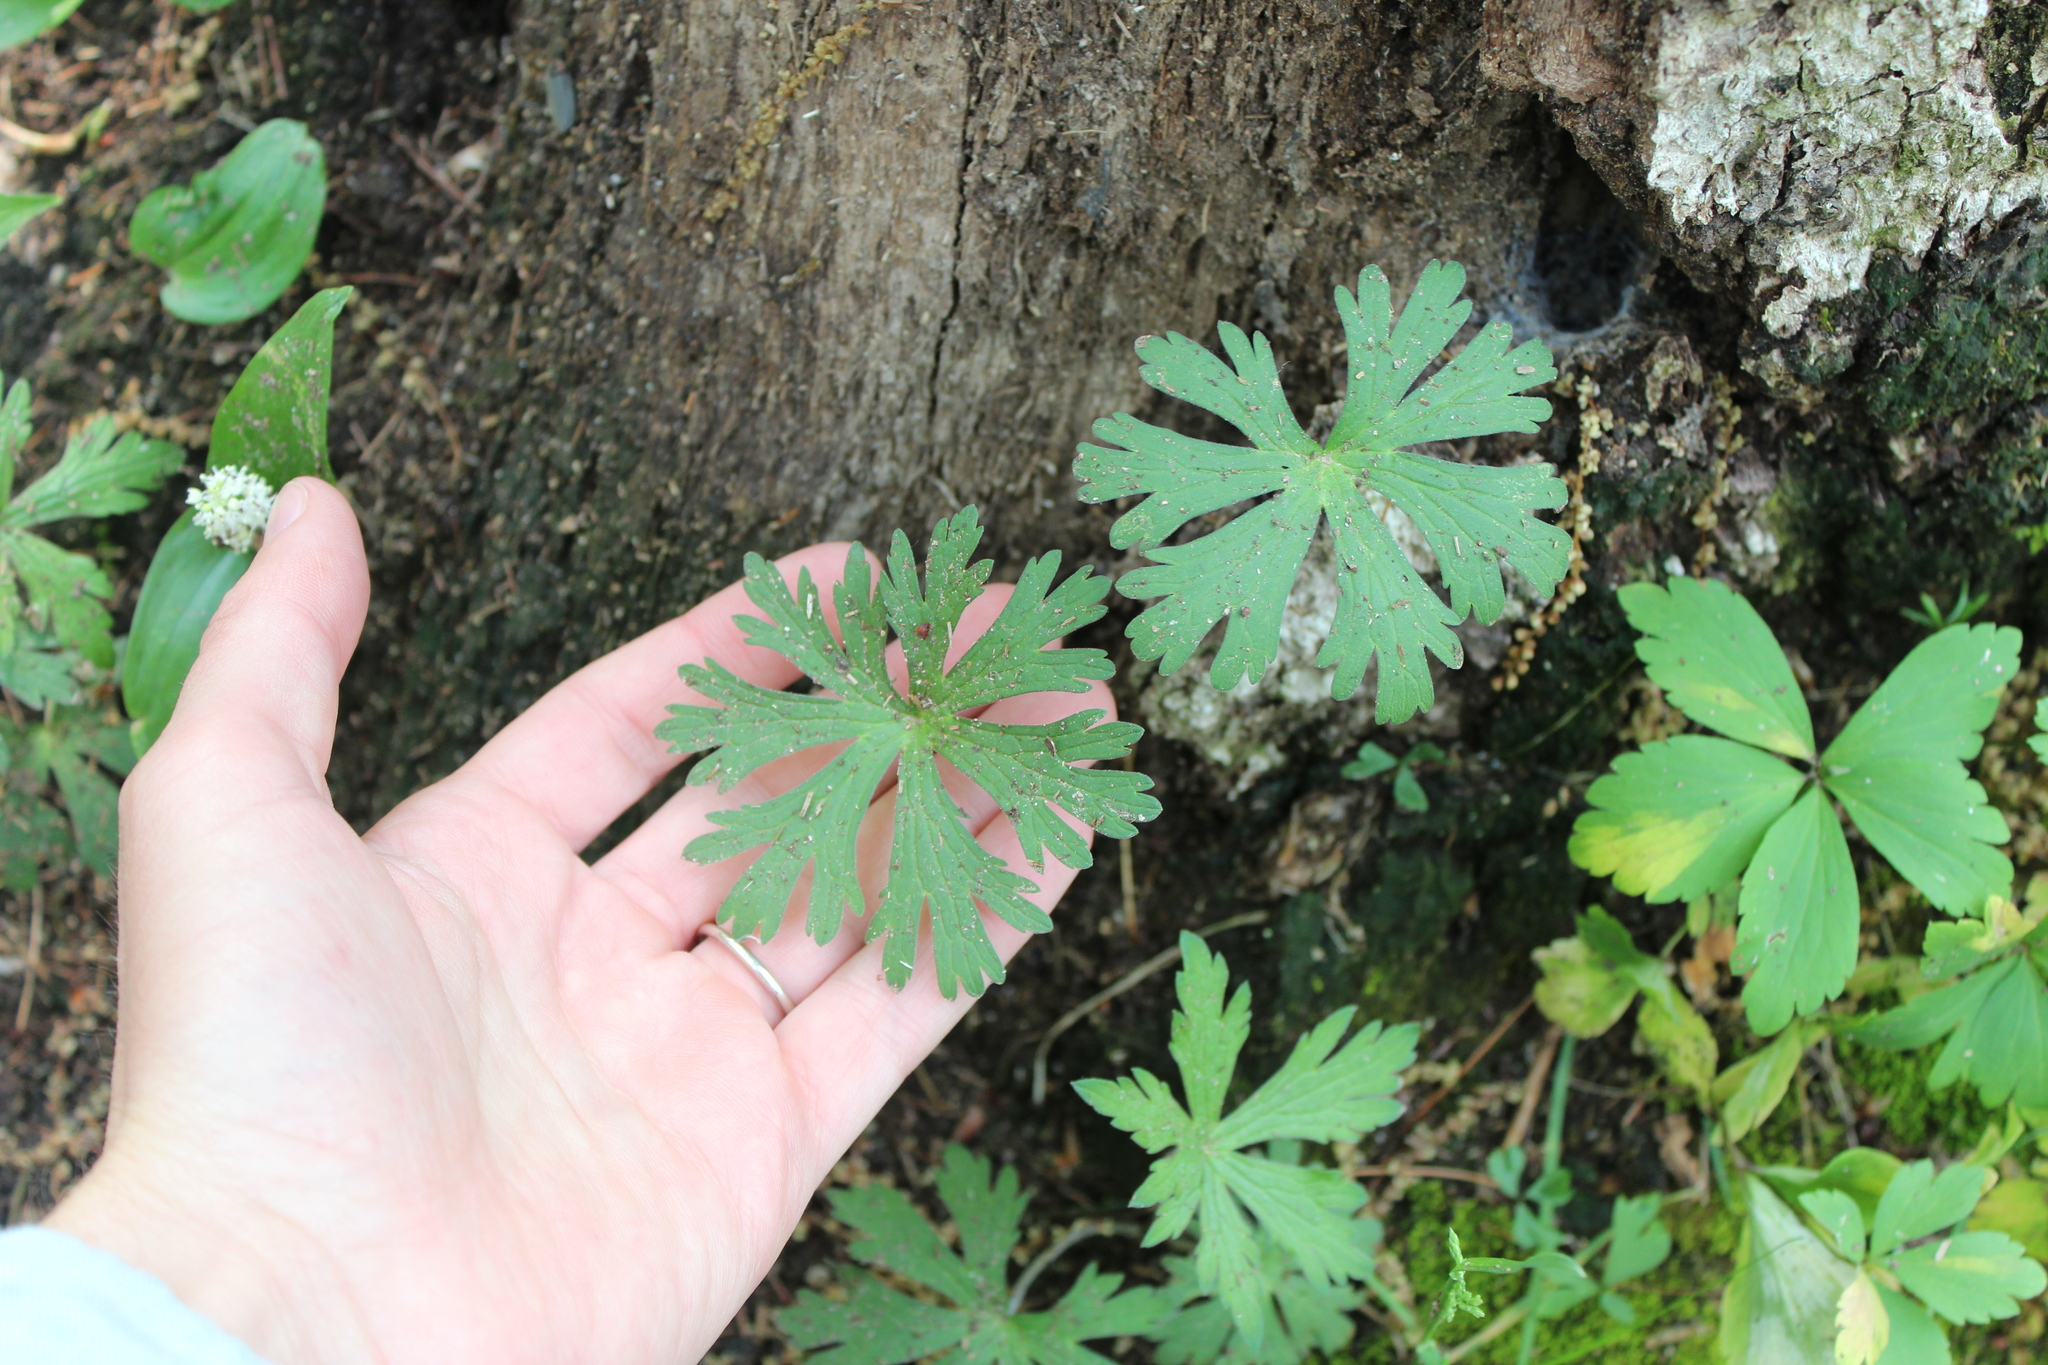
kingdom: Plantae
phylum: Tracheophyta
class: Magnoliopsida
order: Geraniales
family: Geraniaceae
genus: Geranium
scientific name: Geranium maculatum
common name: Spotted geranium
